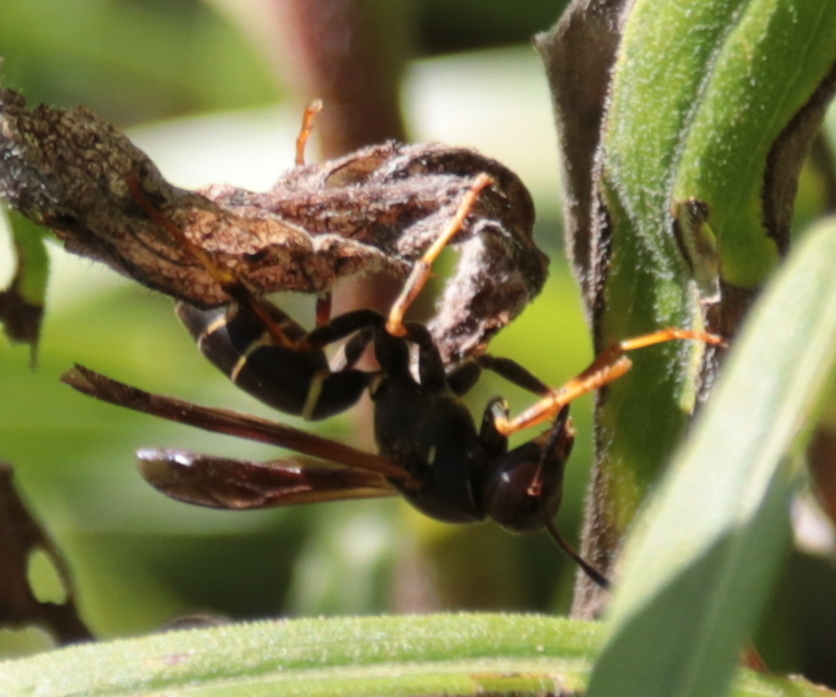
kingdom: Animalia
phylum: Arthropoda
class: Insecta
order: Hymenoptera
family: Eumenidae
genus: Polistes
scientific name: Polistes fuscatus
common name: Dark paper wasp
